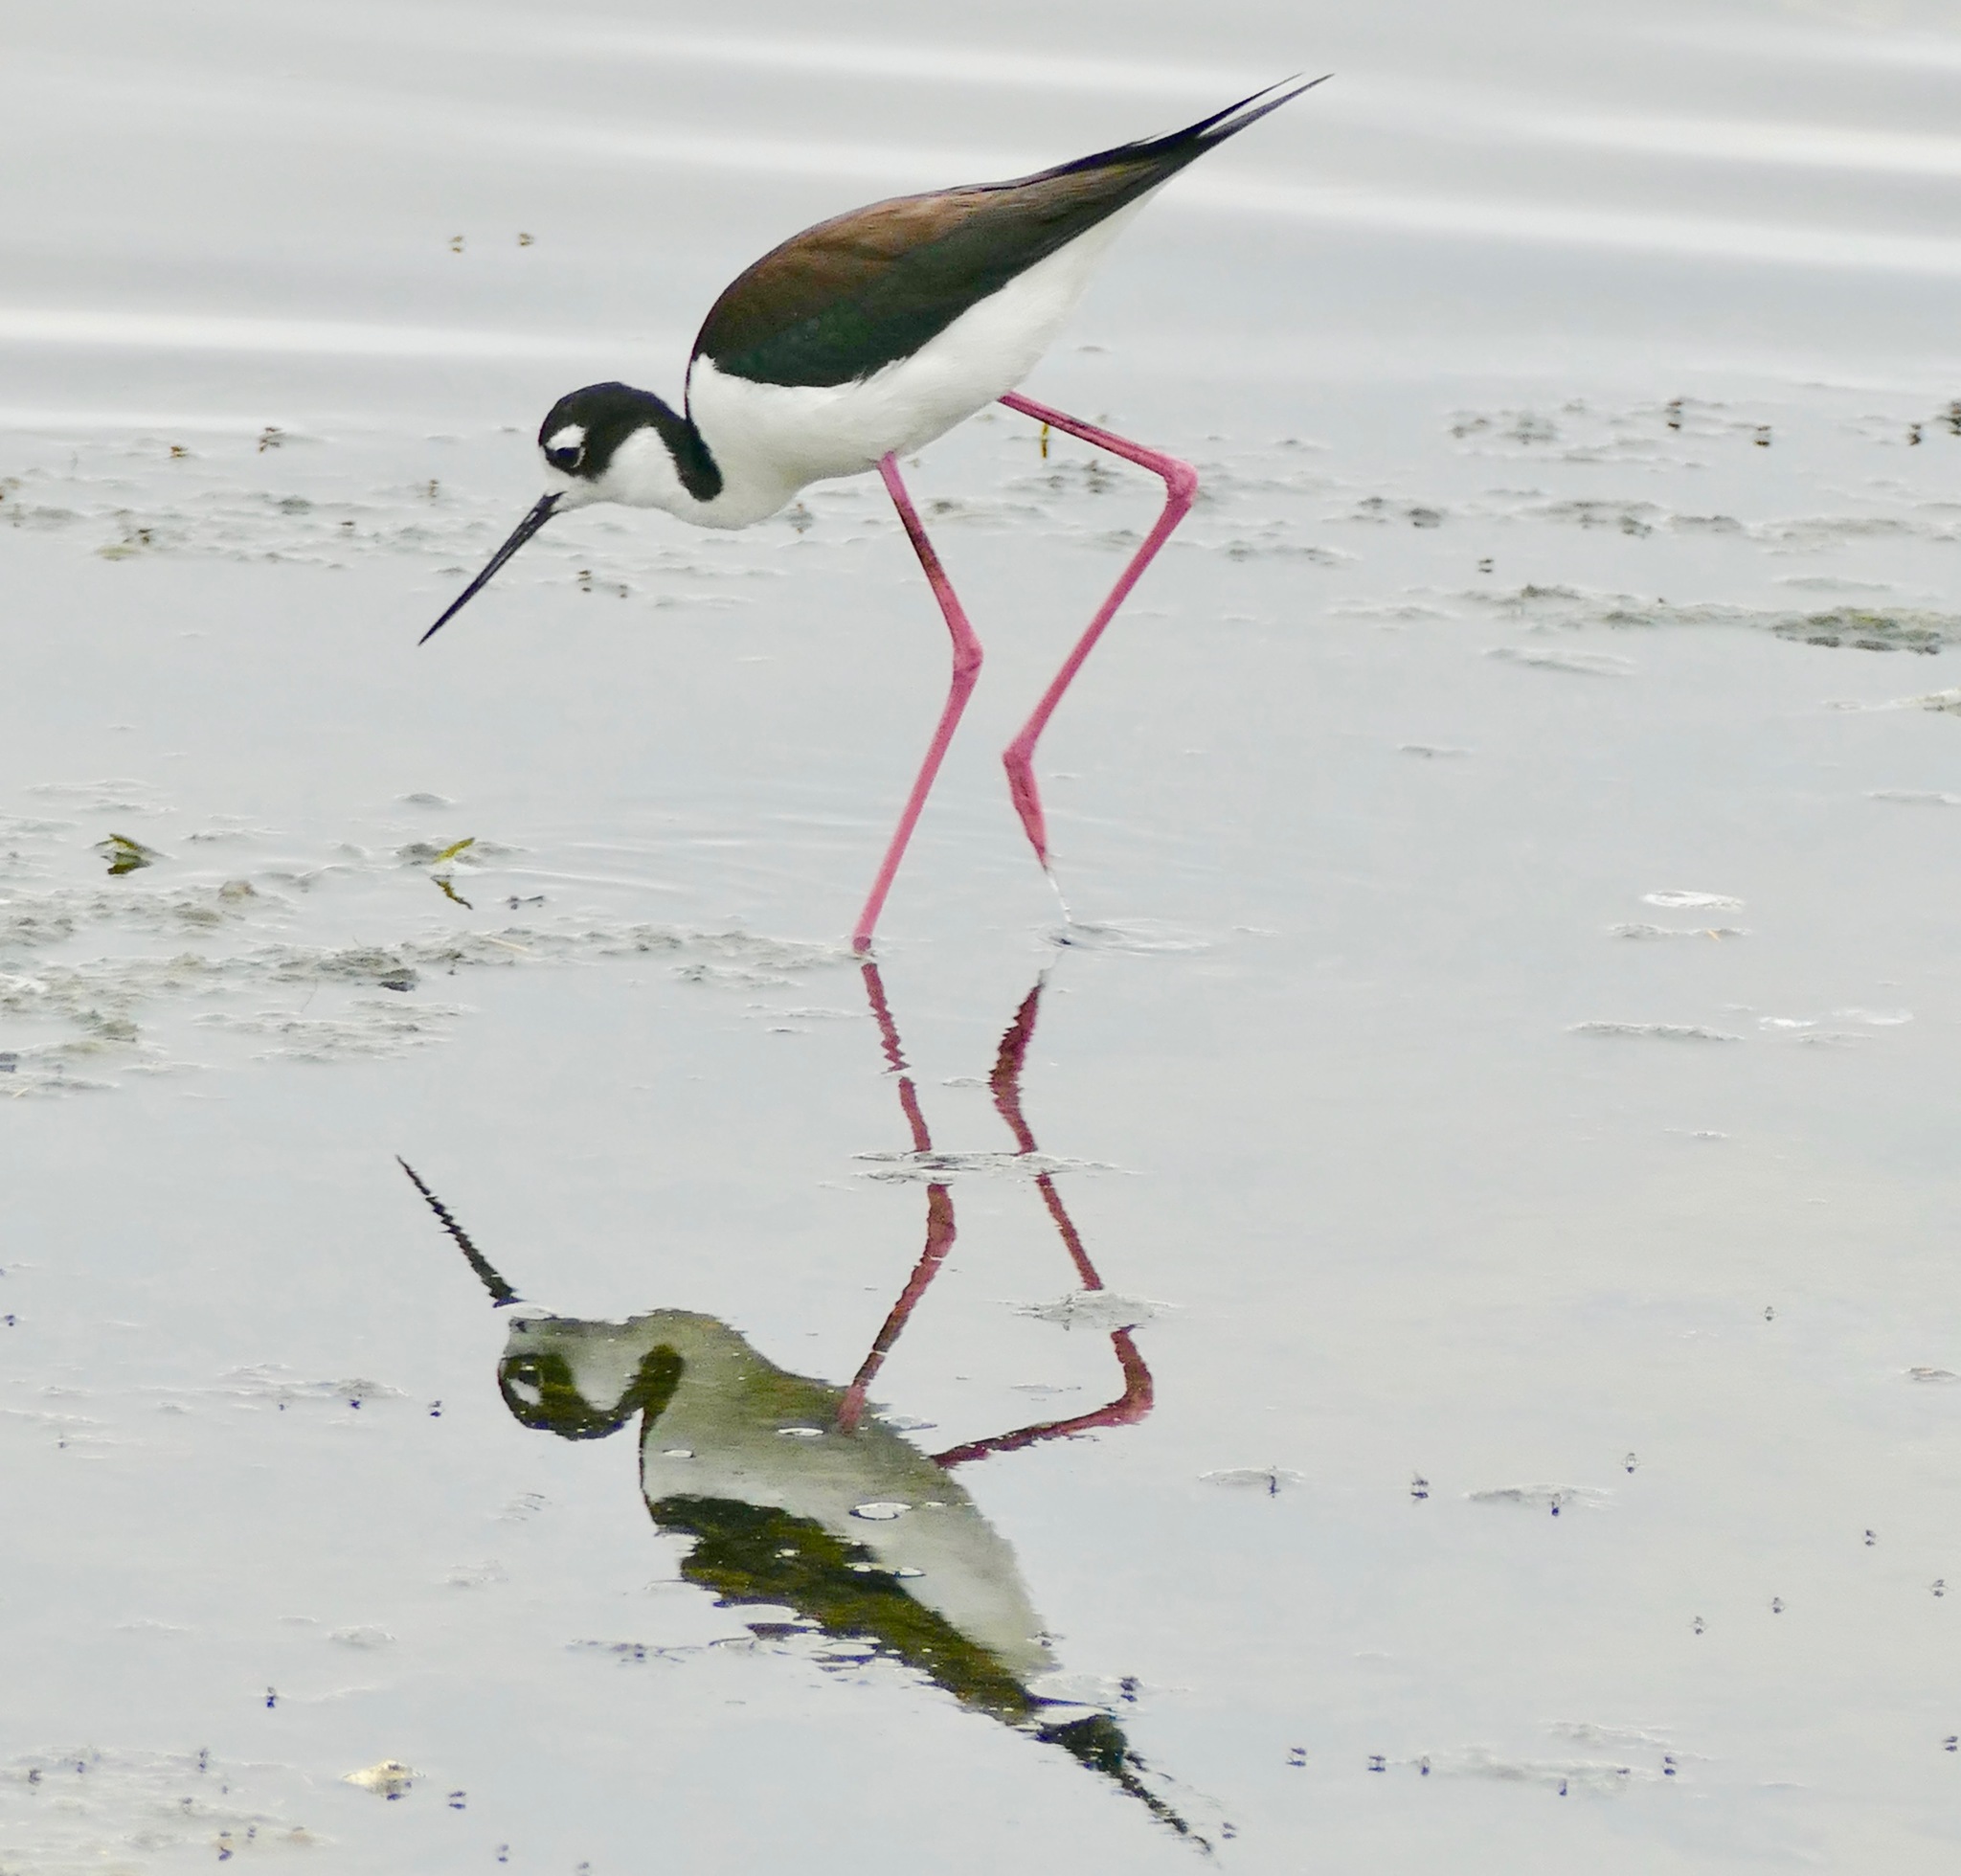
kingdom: Animalia
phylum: Chordata
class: Aves
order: Charadriiformes
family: Recurvirostridae
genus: Himantopus
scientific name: Himantopus mexicanus
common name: Black-necked stilt
